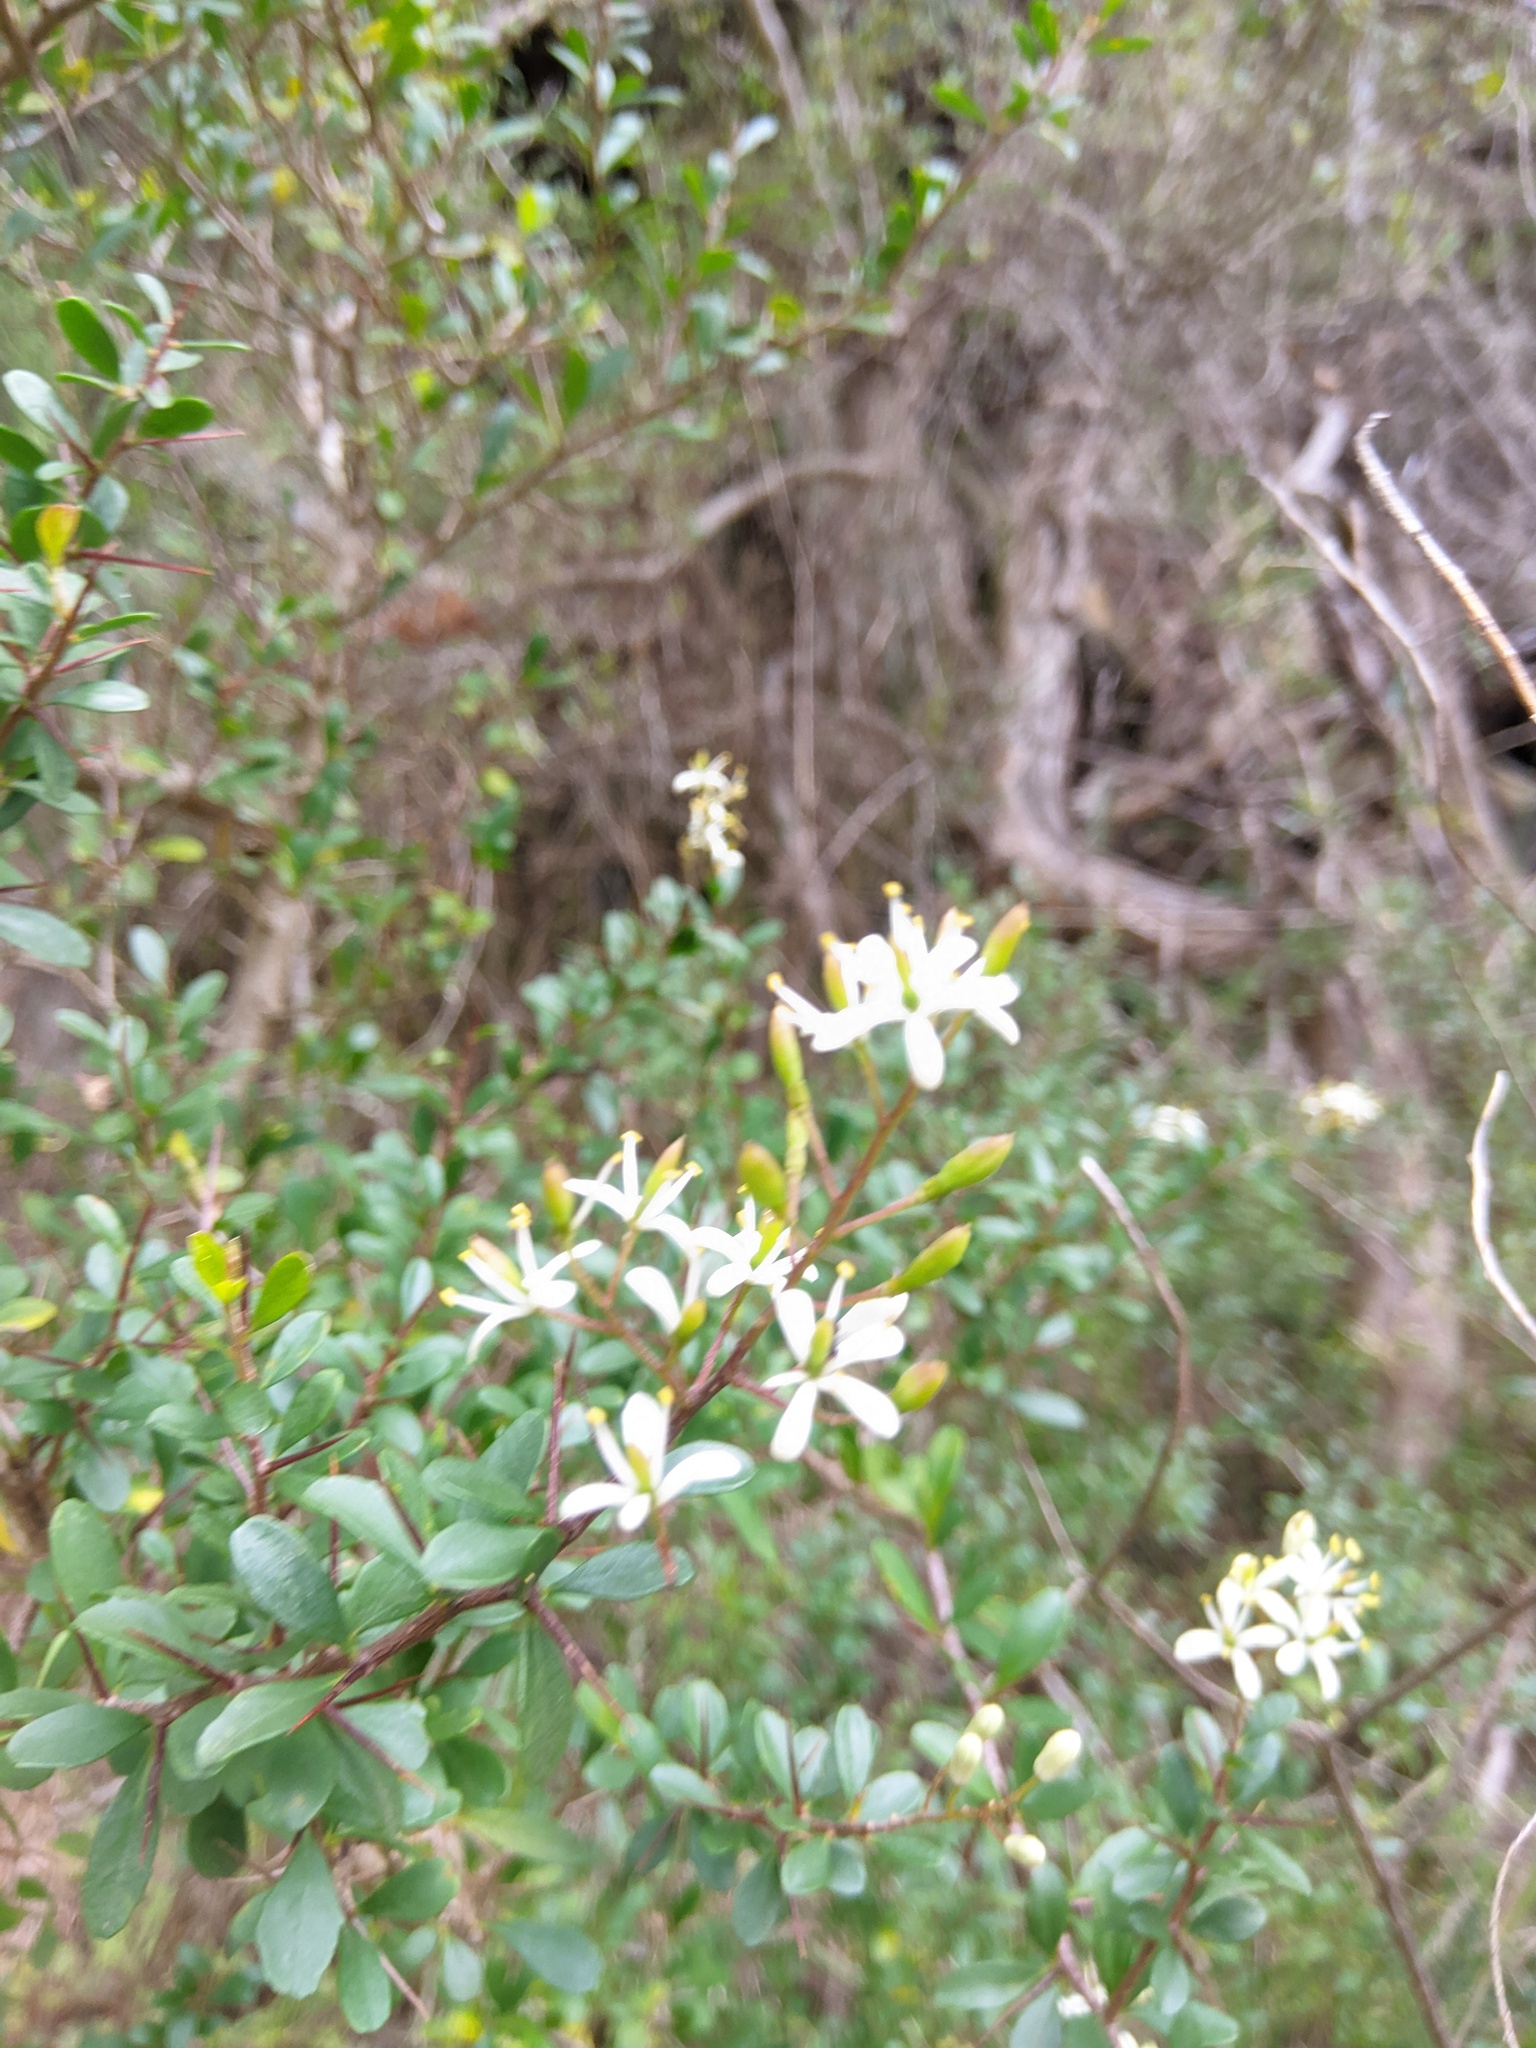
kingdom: Plantae
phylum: Tracheophyta
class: Magnoliopsida
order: Apiales
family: Pittosporaceae
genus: Bursaria
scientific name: Bursaria spinosa
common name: Australian blackthorn
